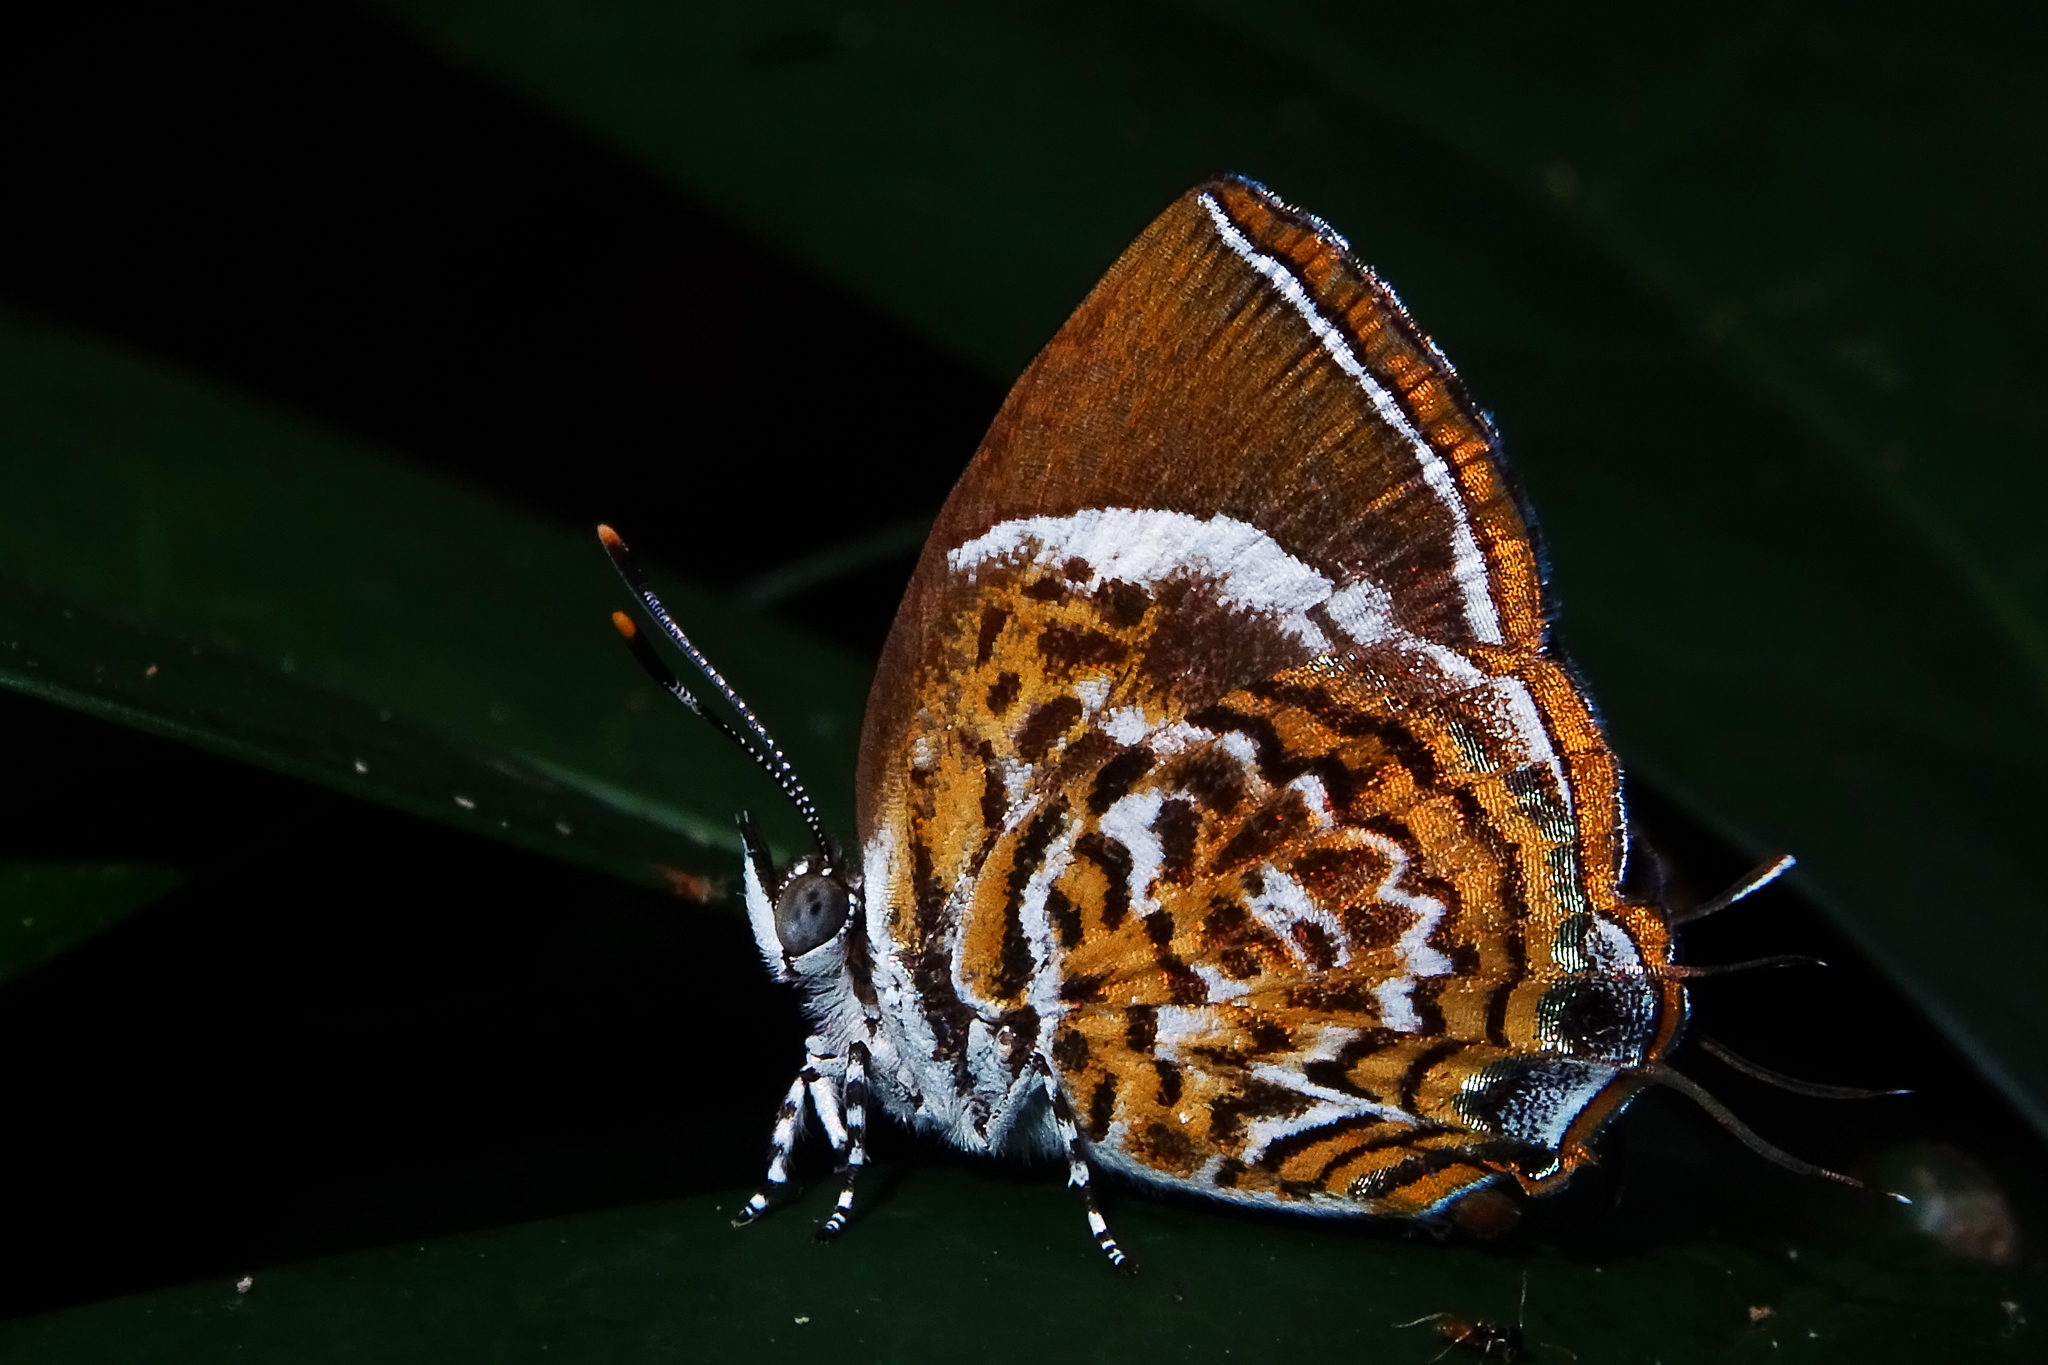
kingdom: Animalia
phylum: Arthropoda
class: Insecta
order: Lepidoptera
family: Lycaenidae
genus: Rathinda
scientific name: Rathinda amor
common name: Monkey puzzle
